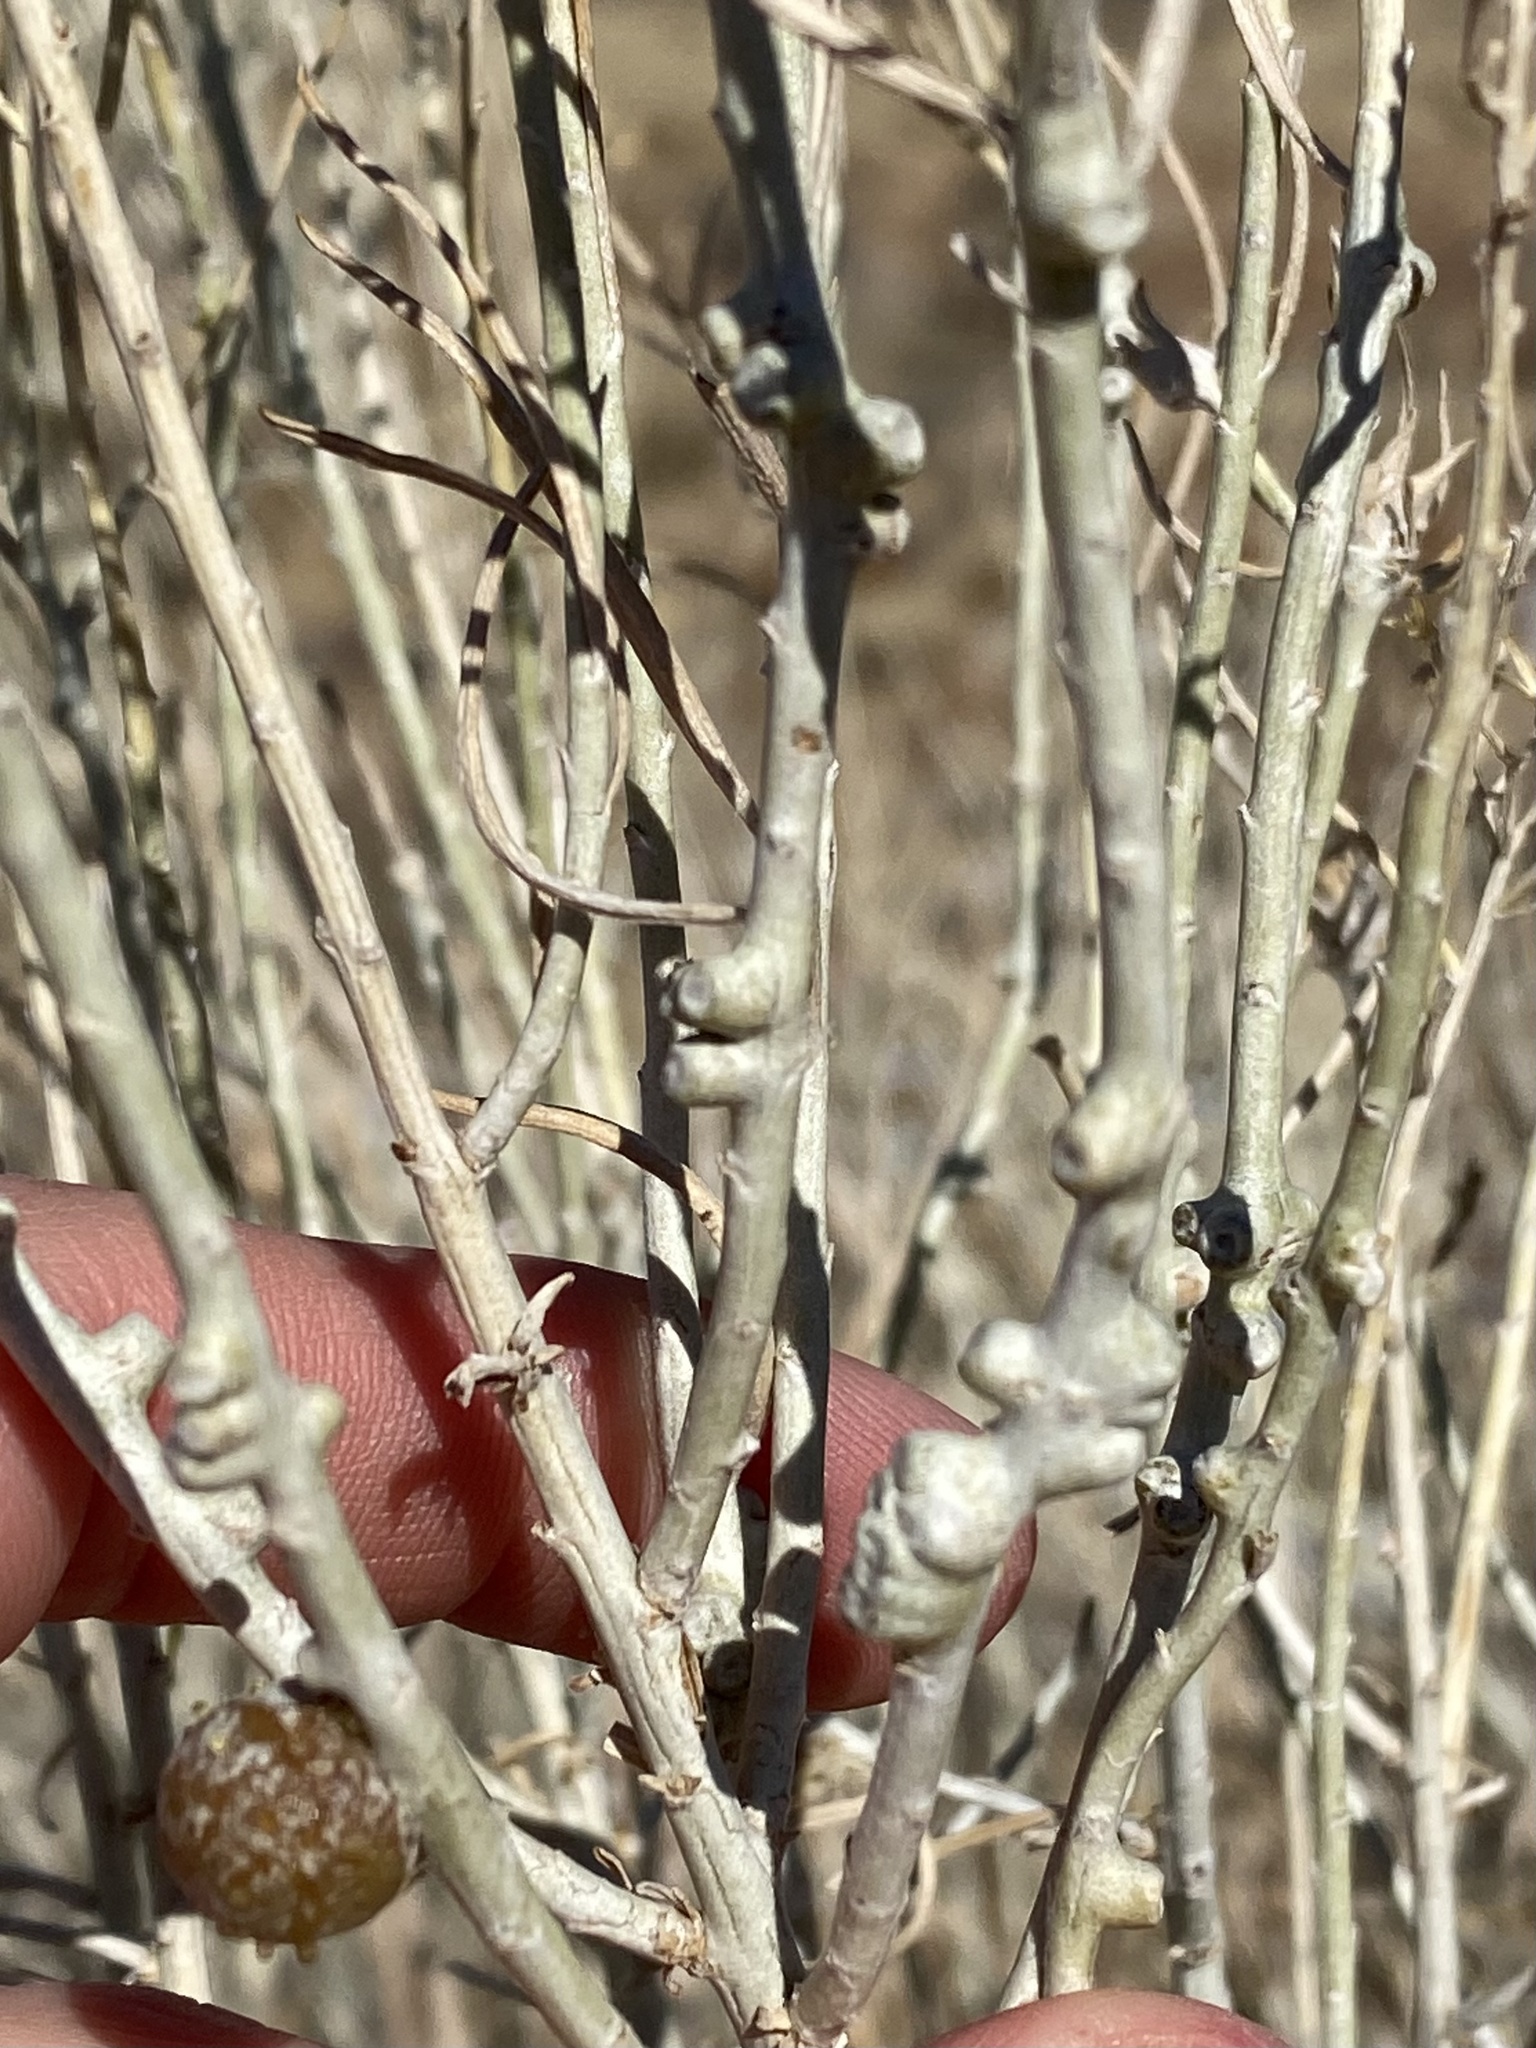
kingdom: Animalia
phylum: Arthropoda
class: Insecta
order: Diptera
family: Cecidomyiidae
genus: Rhopalomyia
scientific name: Rhopalomyia chrysothamni
